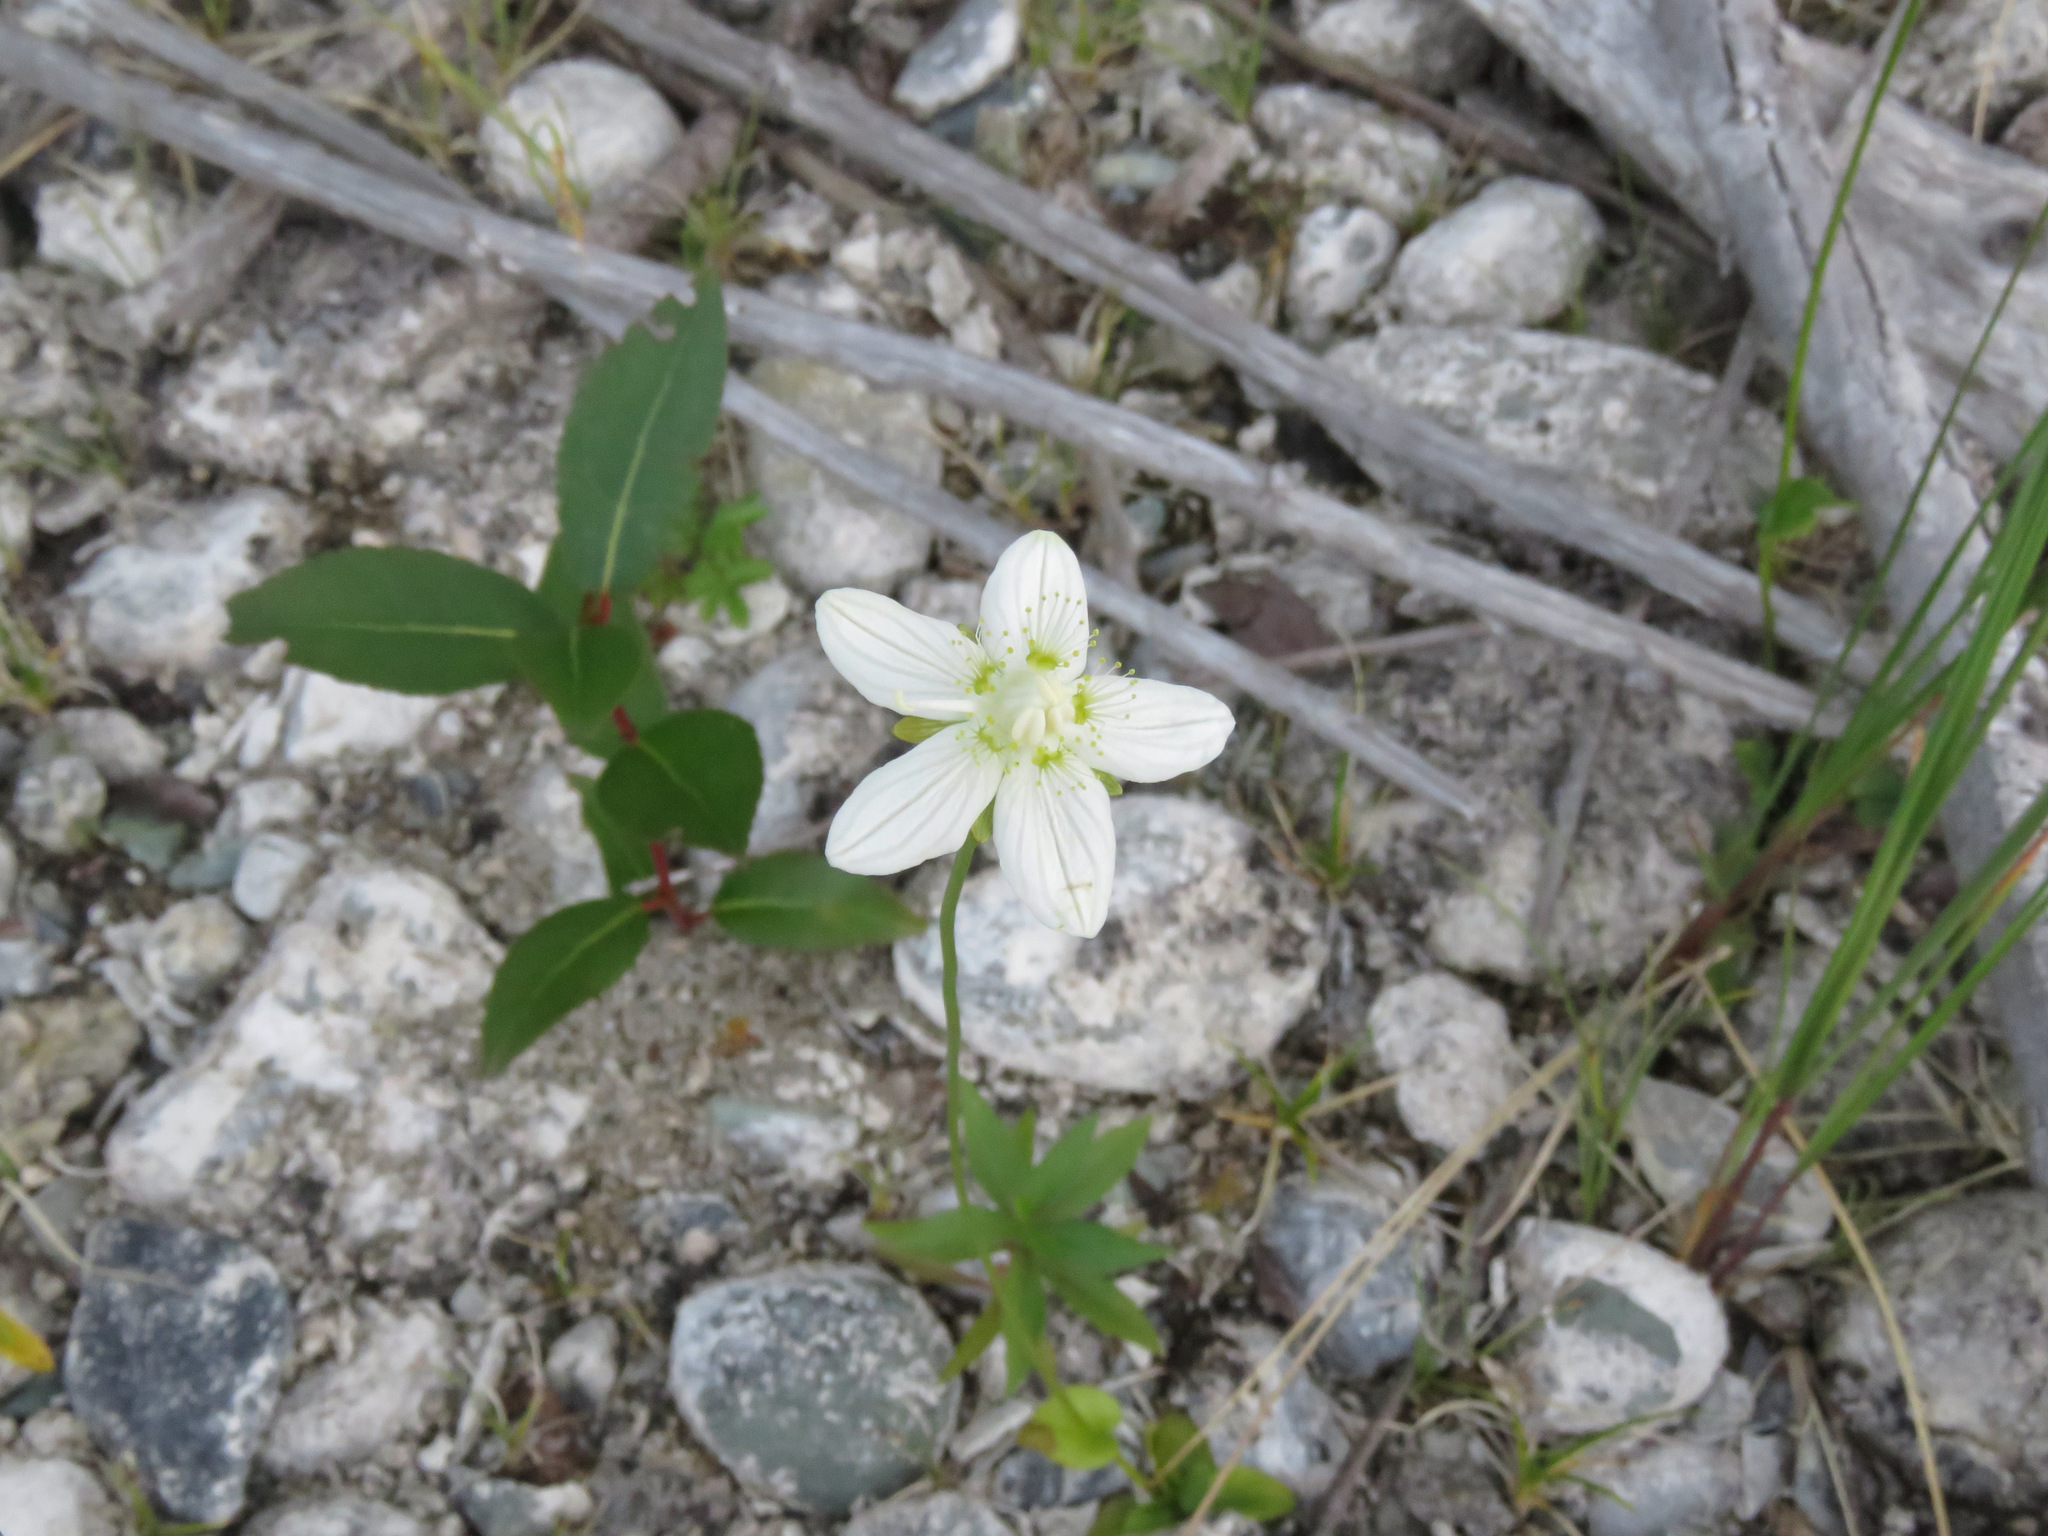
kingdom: Plantae
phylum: Tracheophyta
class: Magnoliopsida
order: Celastrales
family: Parnassiaceae
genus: Parnassia
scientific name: Parnassia palustris
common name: Grass-of-parnassus
